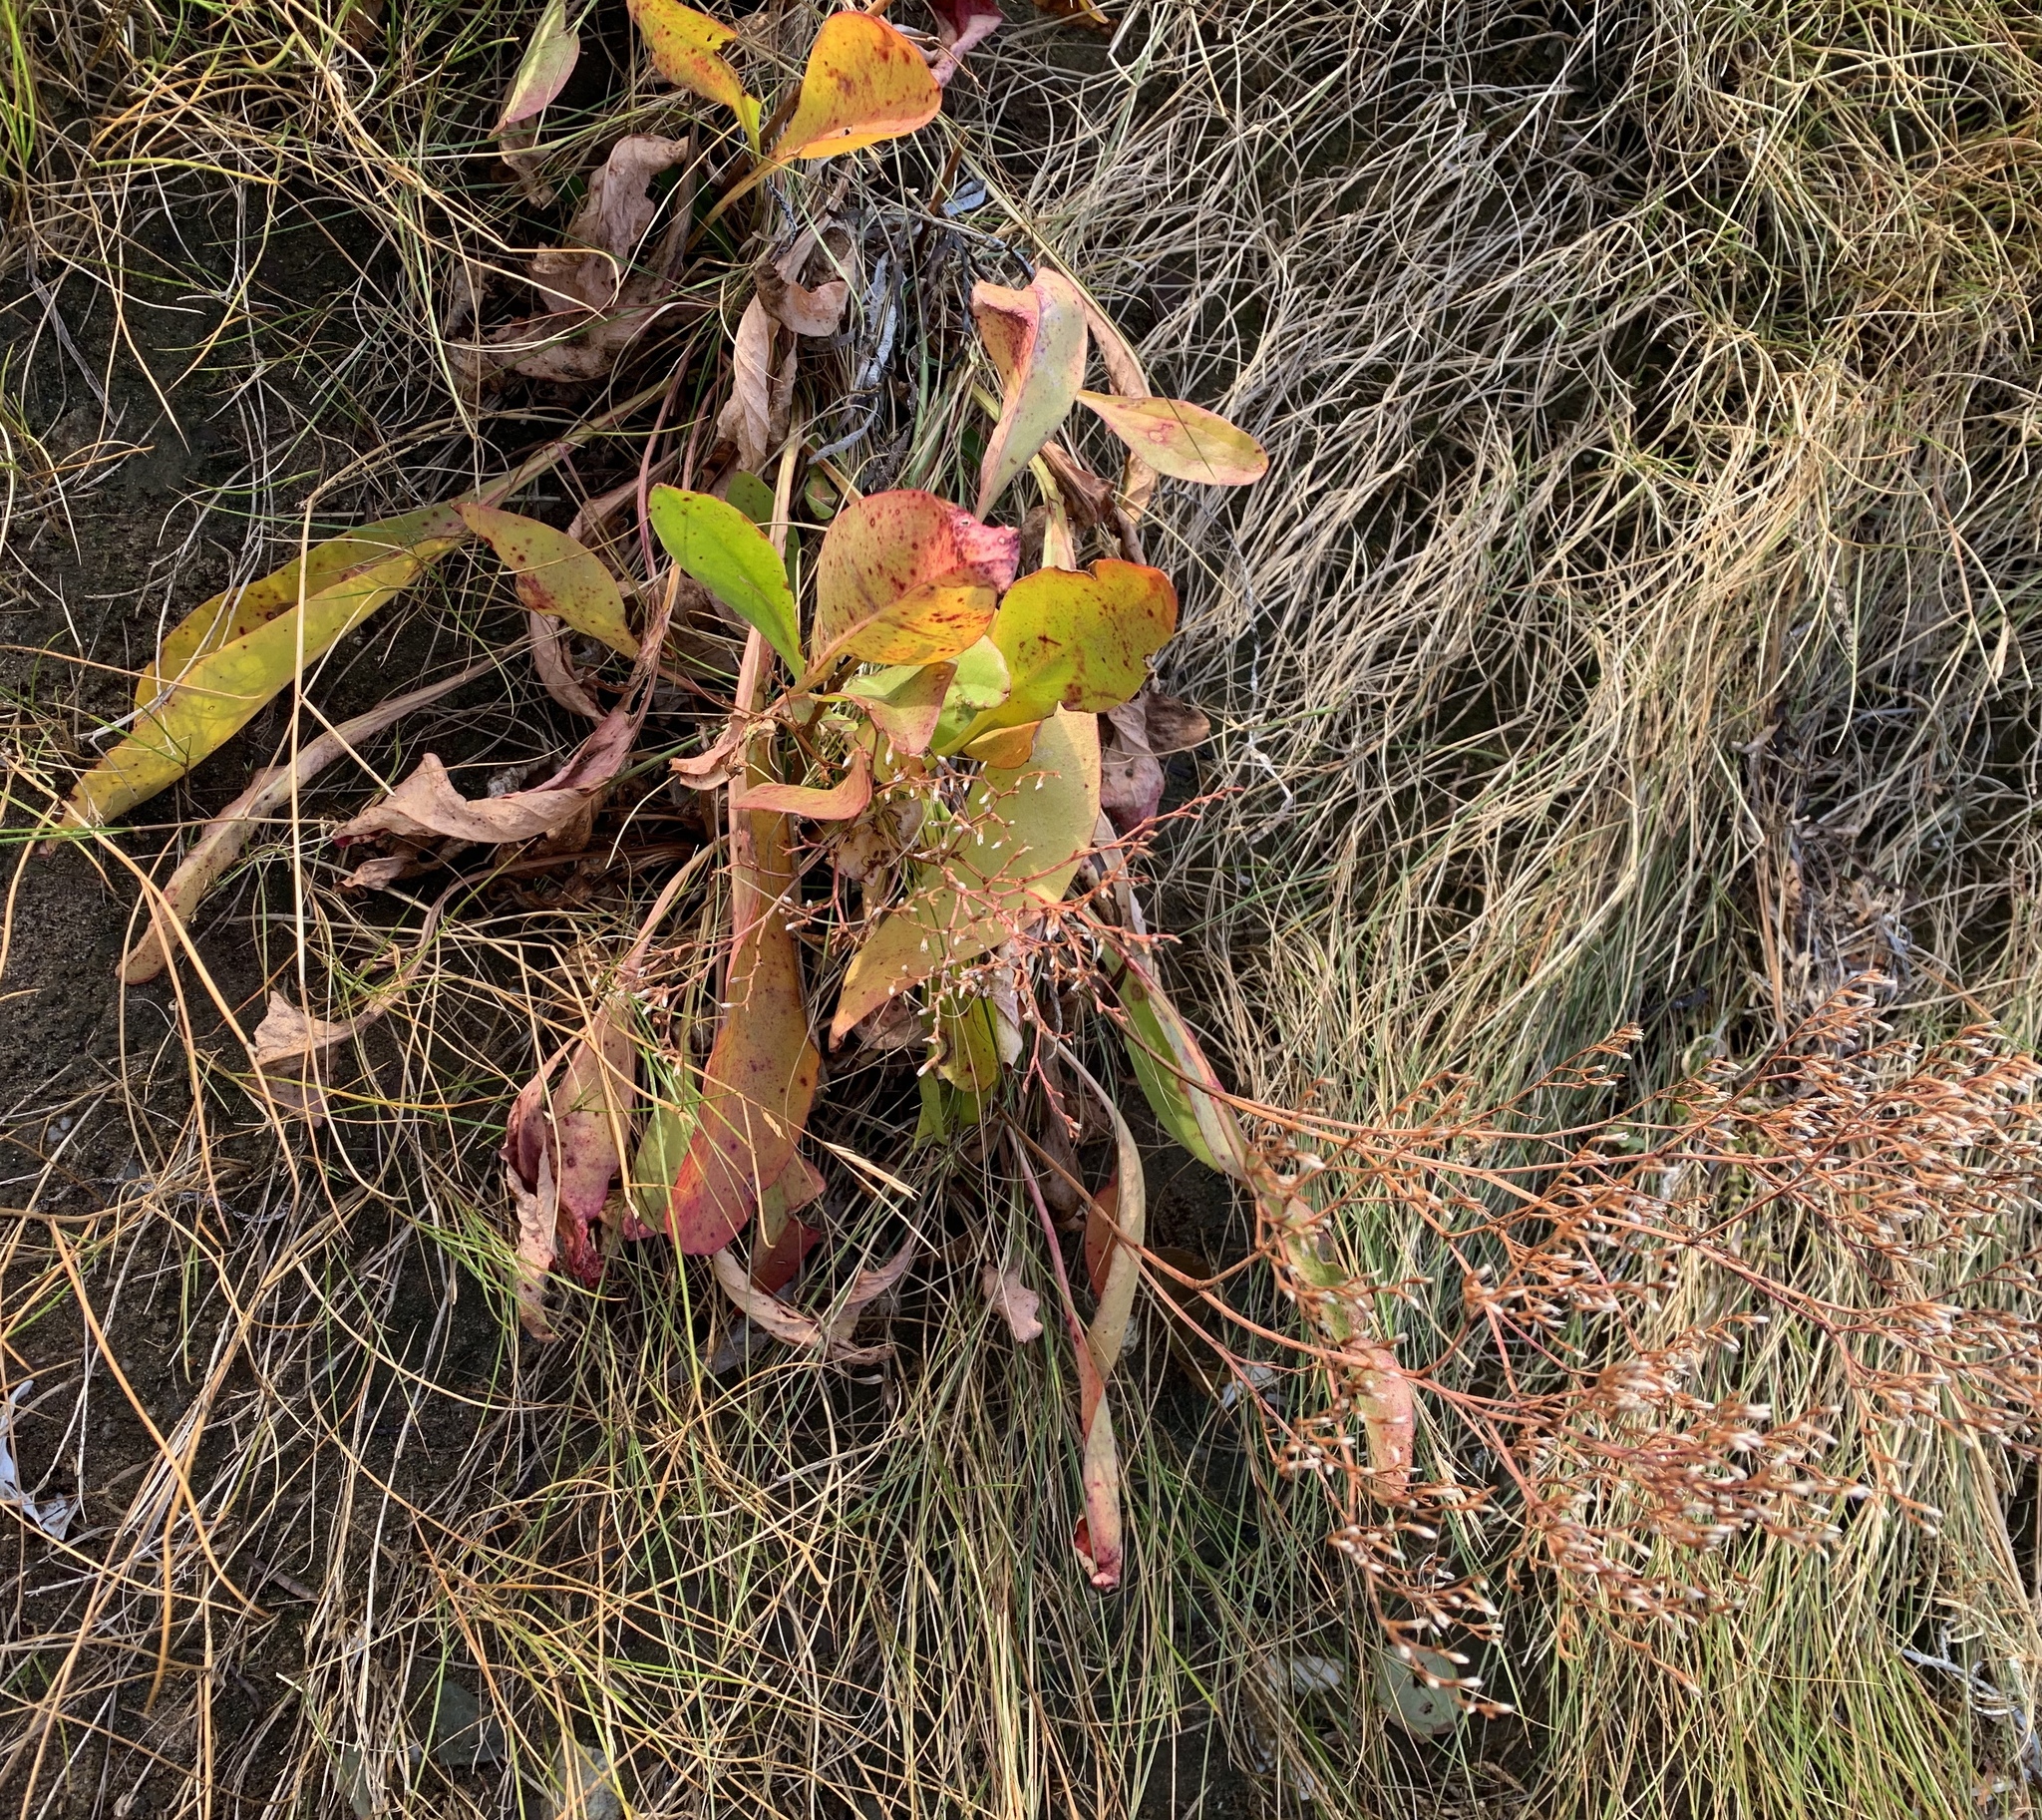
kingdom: Plantae
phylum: Tracheophyta
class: Magnoliopsida
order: Caryophyllales
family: Plumbaginaceae
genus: Limonium
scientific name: Limonium carolinianum
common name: Carolina sea lavender
